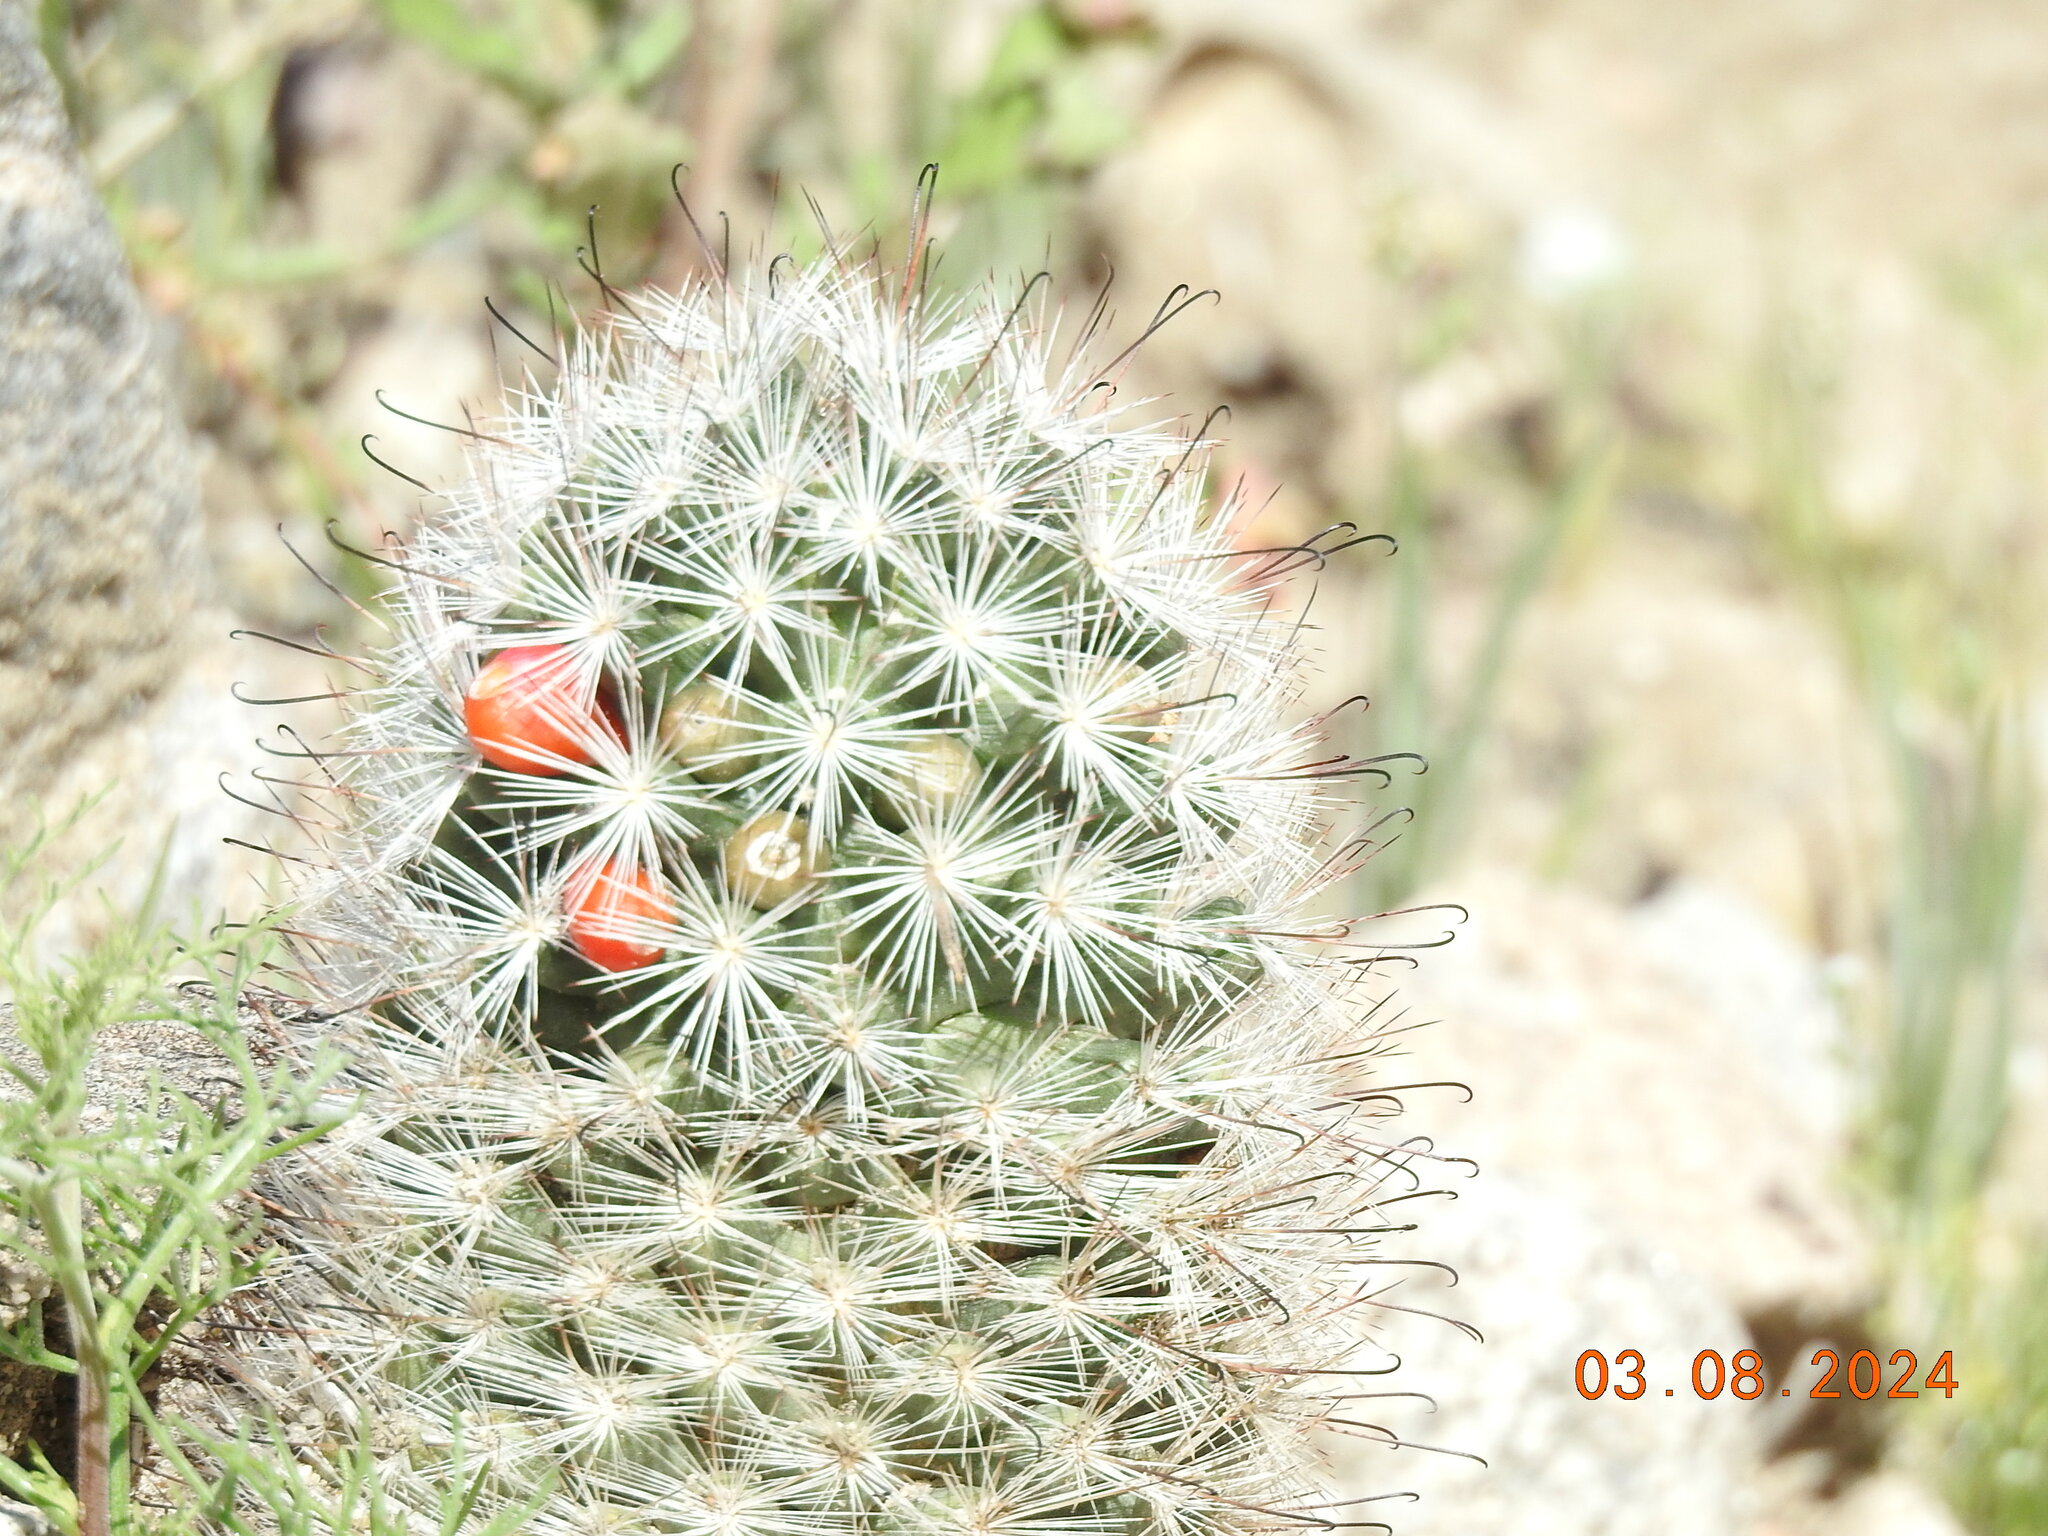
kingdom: Plantae
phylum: Tracheophyta
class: Magnoliopsida
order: Caryophyllales
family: Cactaceae
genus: Cochemiea
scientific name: Cochemiea tetrancistra
